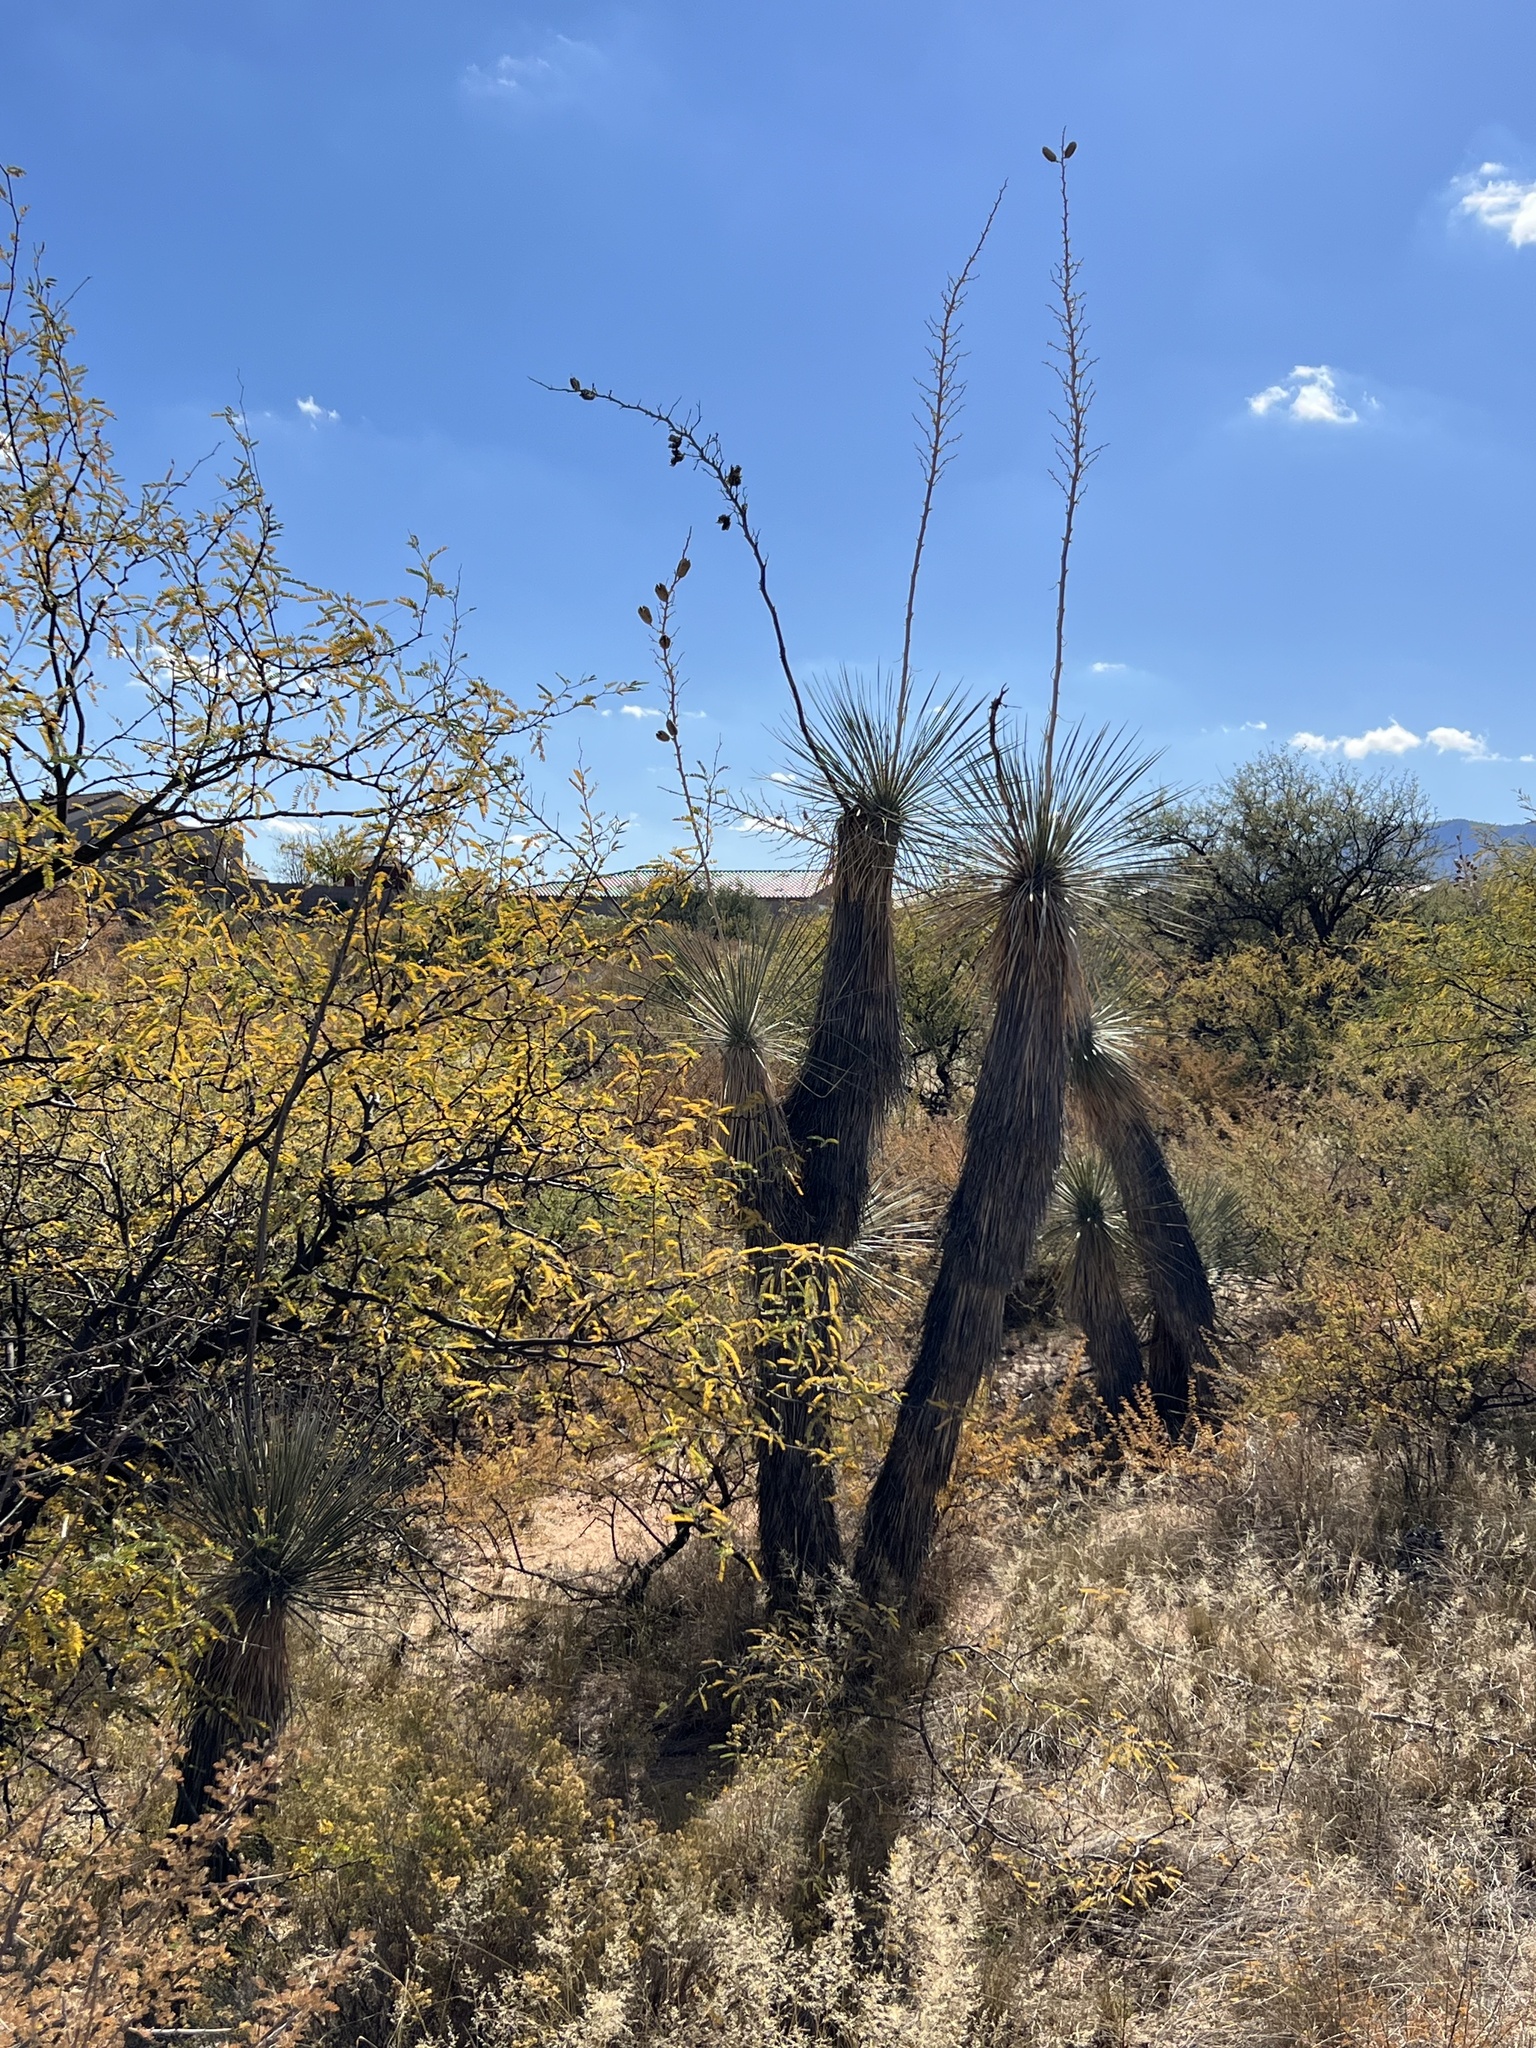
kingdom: Plantae
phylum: Tracheophyta
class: Liliopsida
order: Asparagales
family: Asparagaceae
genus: Yucca
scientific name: Yucca elata
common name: Palmella
